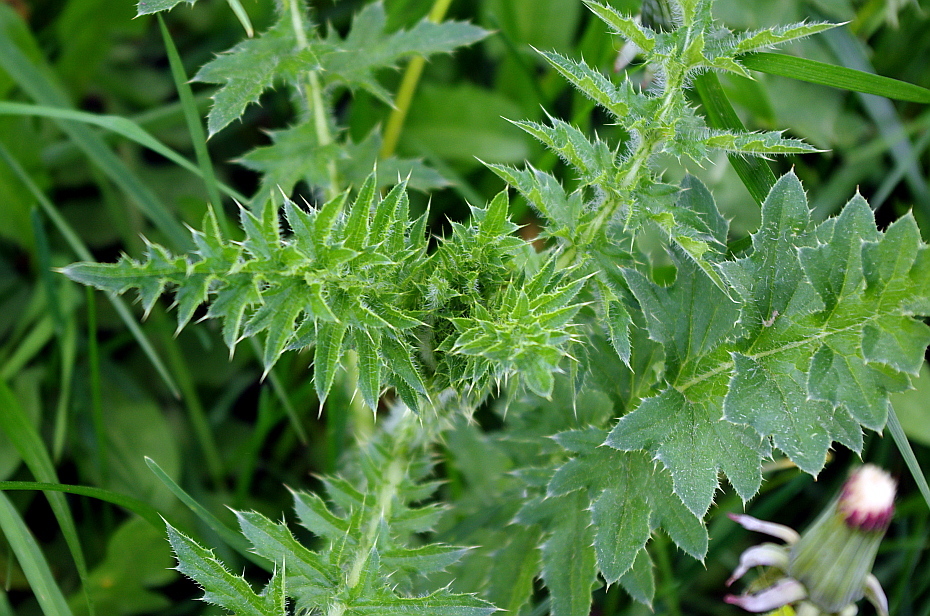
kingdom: Plantae
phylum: Tracheophyta
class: Magnoliopsida
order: Asterales
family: Asteraceae
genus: Carduus
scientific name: Carduus acanthoides
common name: Plumeless thistle
